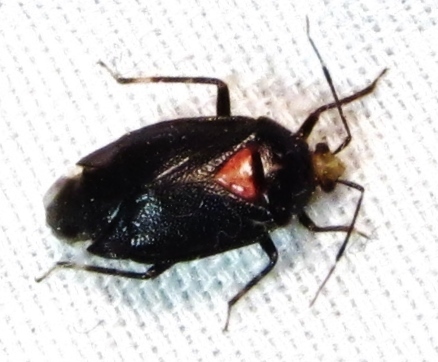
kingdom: Animalia
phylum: Arthropoda
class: Insecta
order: Hemiptera
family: Miridae
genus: Deraeocoris
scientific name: Deraeocoris sayi
